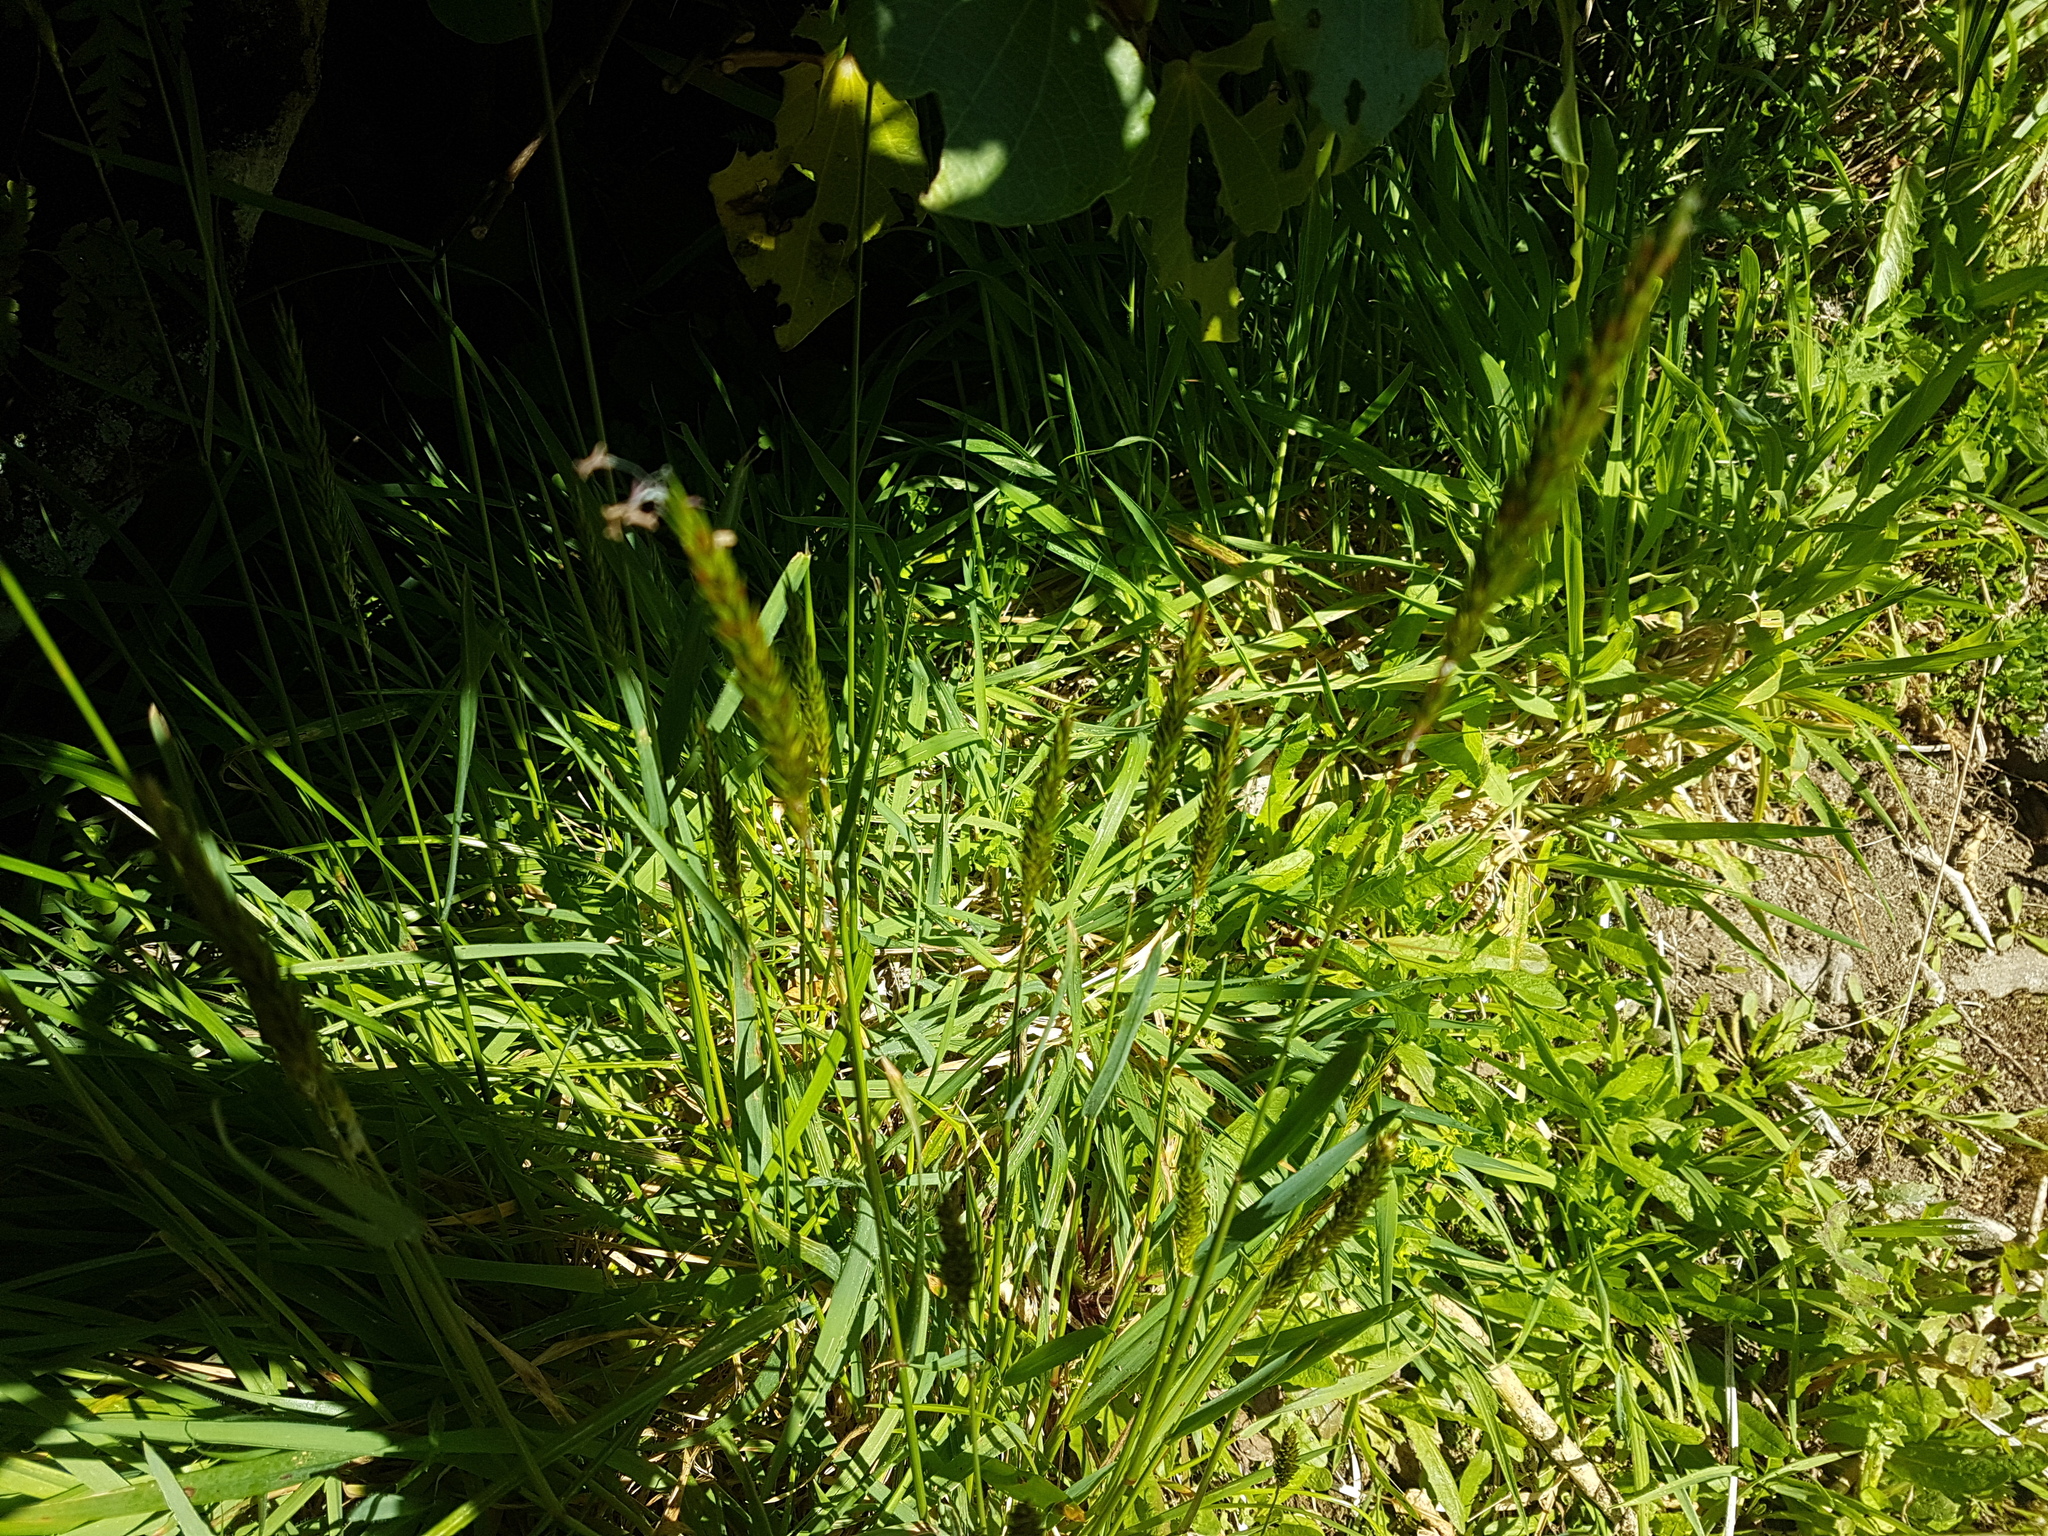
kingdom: Plantae
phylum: Tracheophyta
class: Liliopsida
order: Poales
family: Poaceae
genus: Anthoxanthum
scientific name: Anthoxanthum odoratum
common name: Sweet vernalgrass
